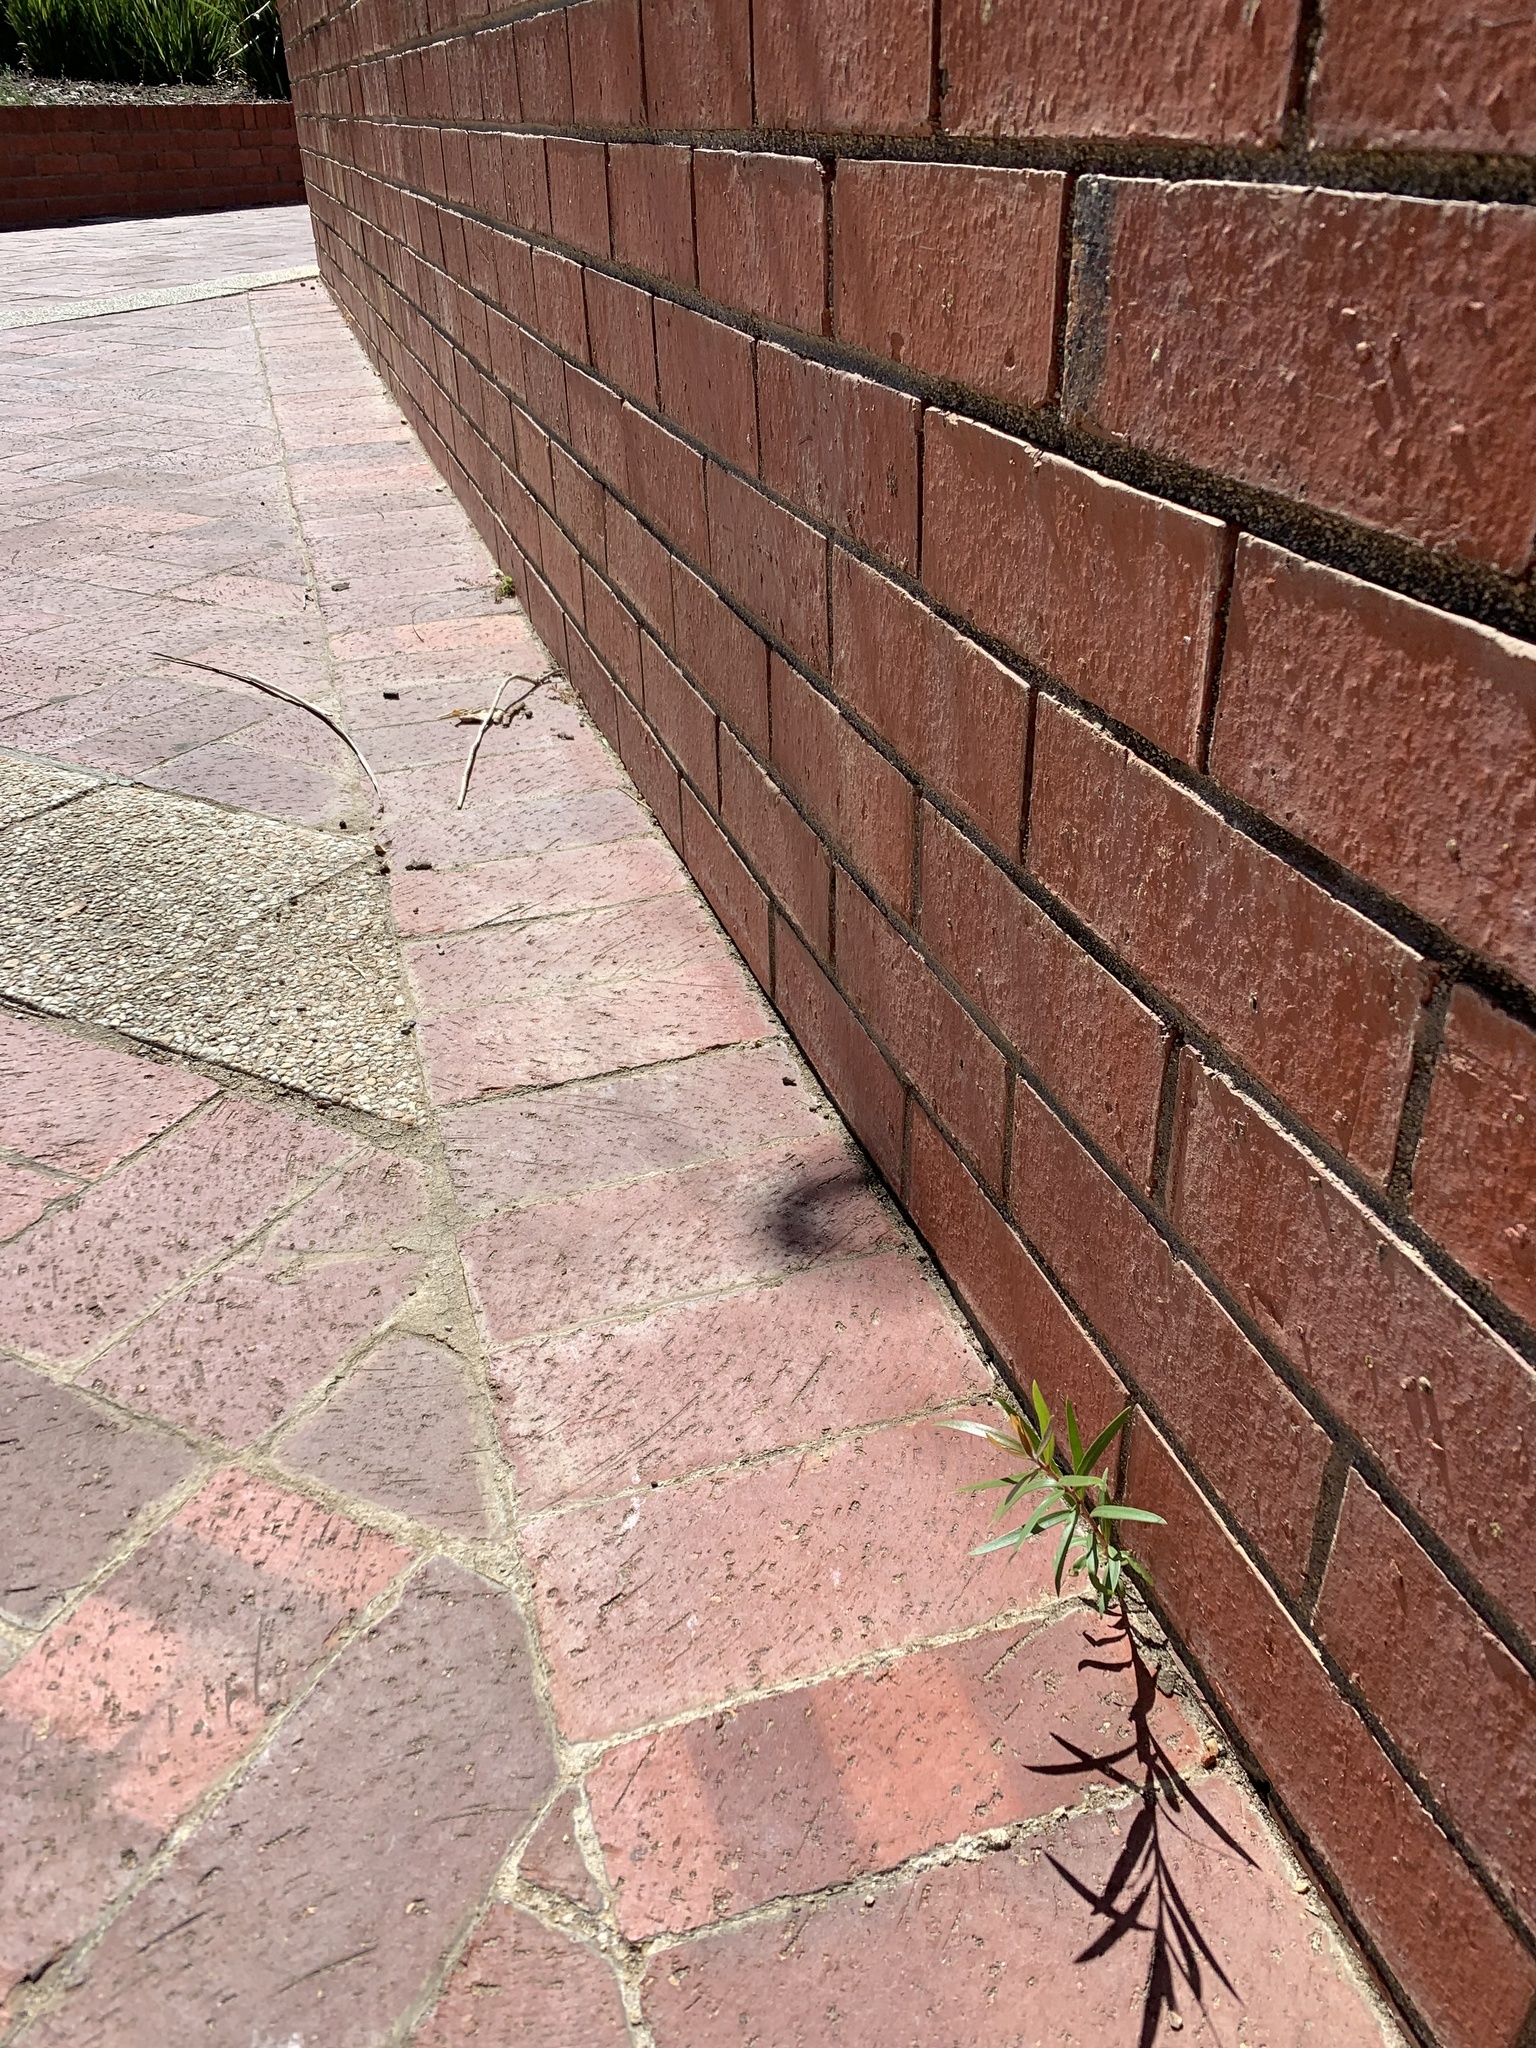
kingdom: Plantae
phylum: Tracheophyta
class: Magnoliopsida
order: Myrtales
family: Myrtaceae
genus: Callistemon
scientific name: Callistemon viminalis
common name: Drooping bottlebrush
